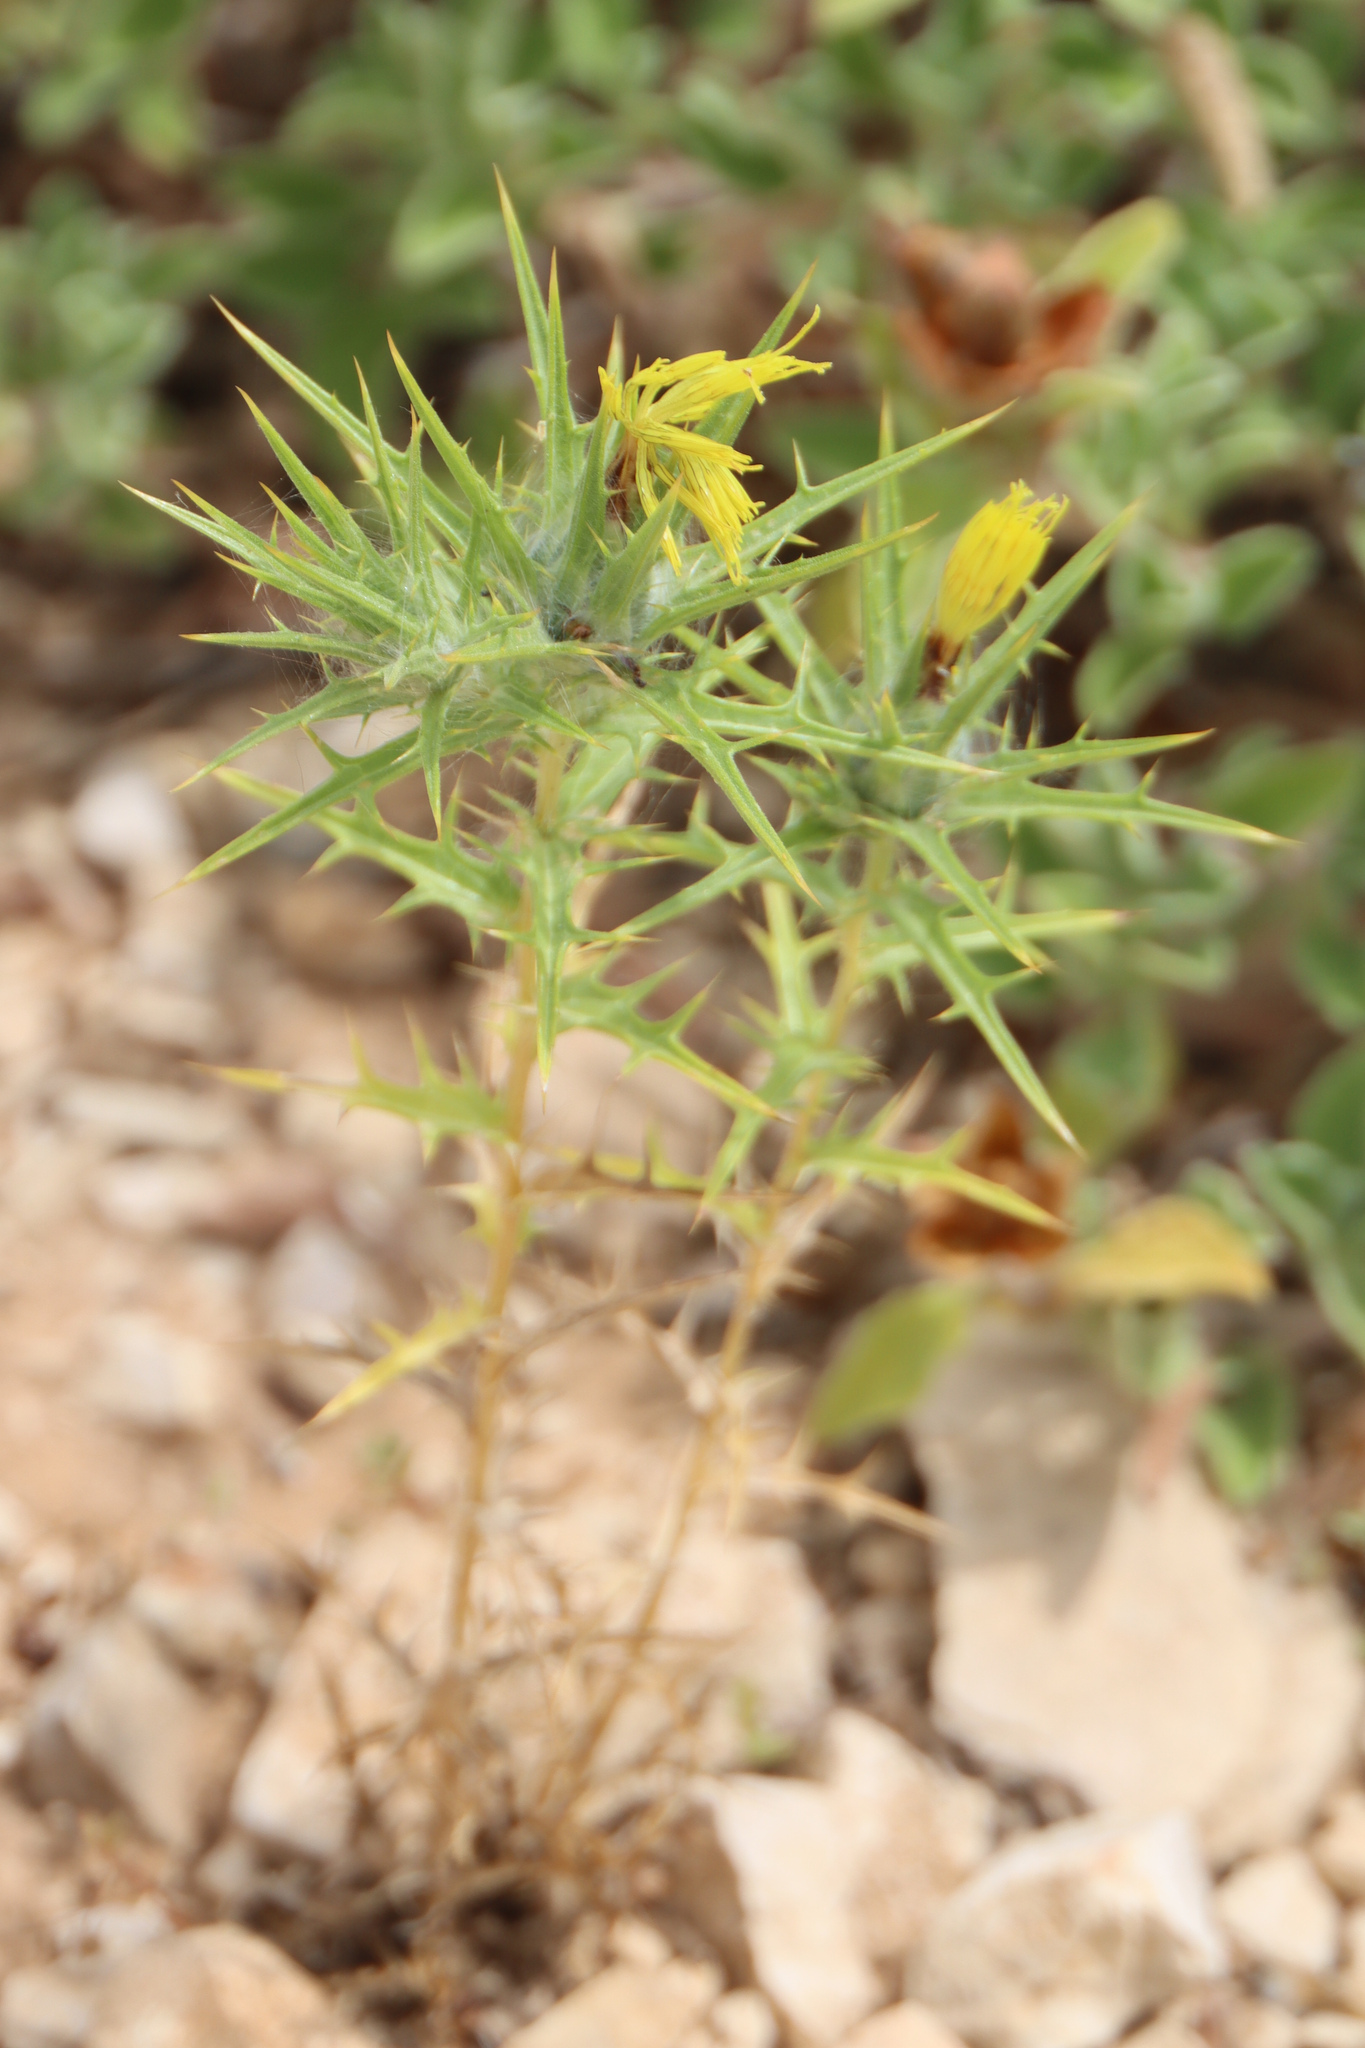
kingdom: Plantae
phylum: Tracheophyta
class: Magnoliopsida
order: Asterales
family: Asteraceae
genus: Carthamus
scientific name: Carthamus lanatus
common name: Downy safflower
